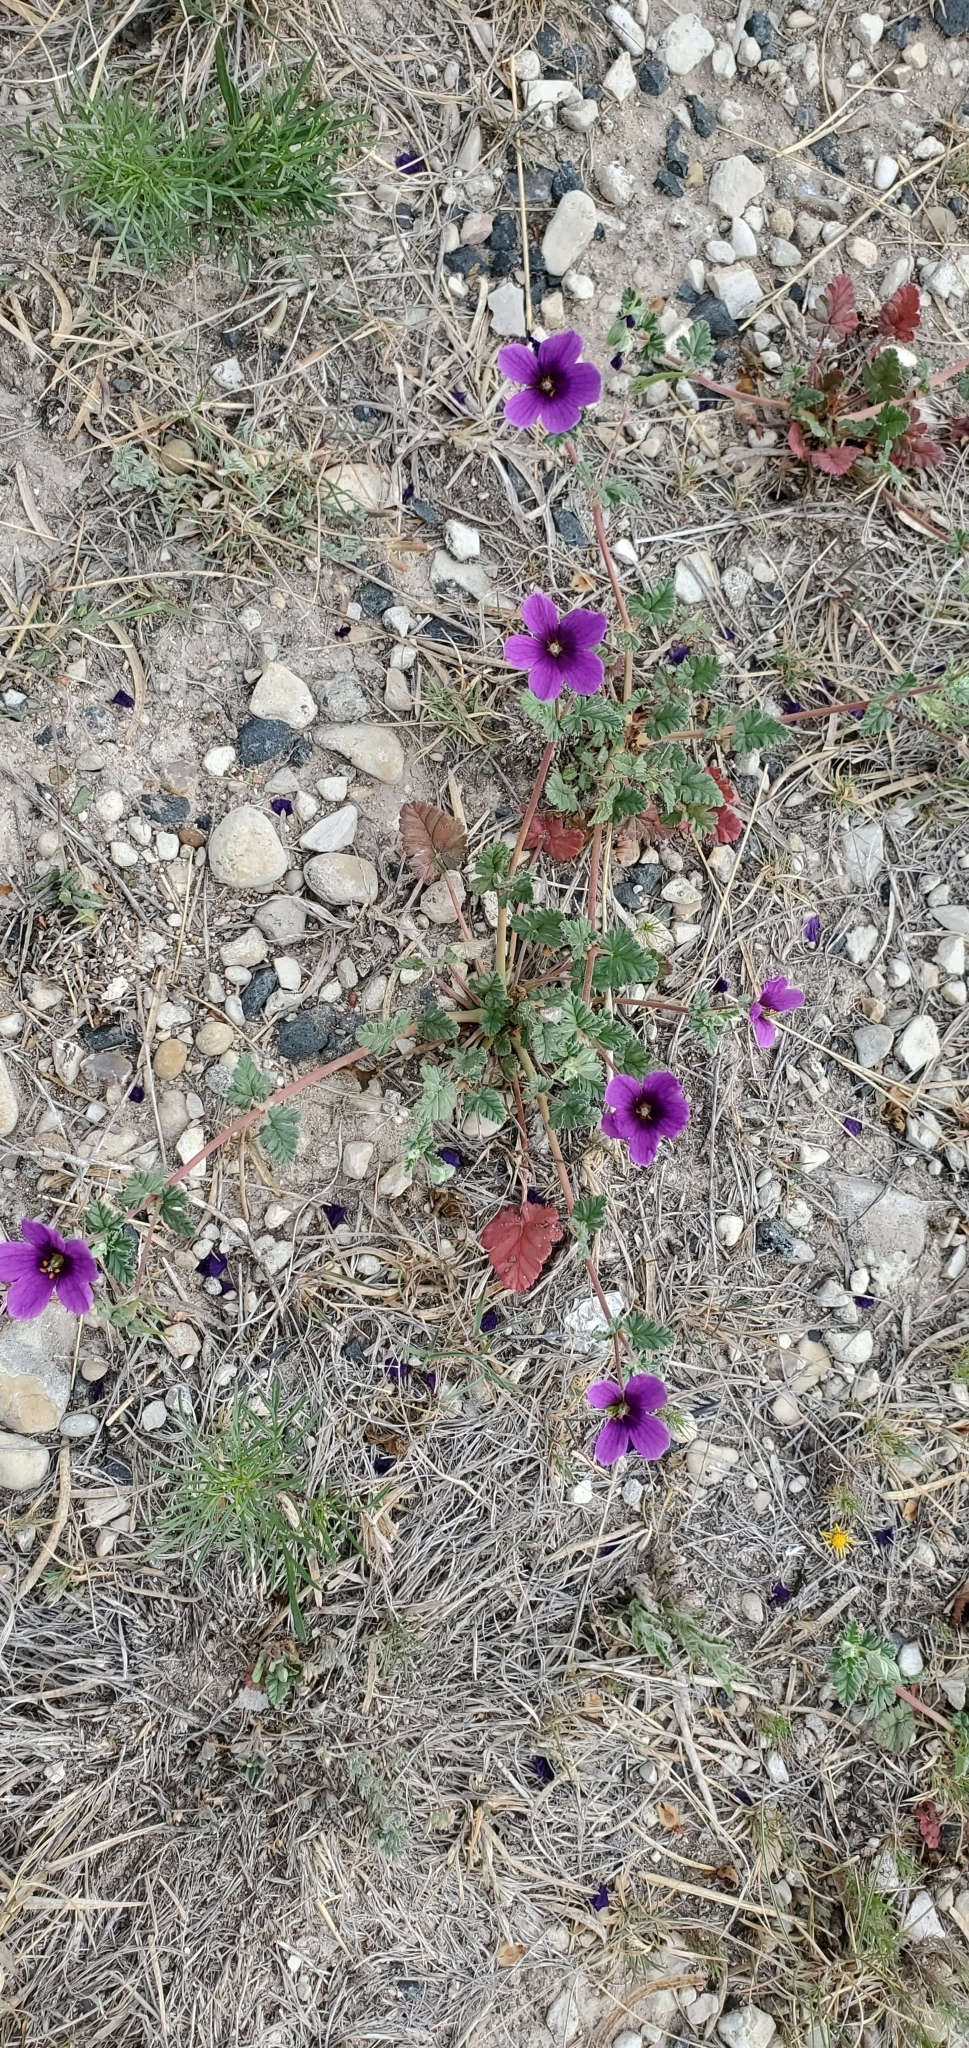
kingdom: Plantae
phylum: Tracheophyta
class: Magnoliopsida
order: Geraniales
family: Geraniaceae
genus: Erodium
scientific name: Erodium texanum
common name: Texas stork's-bill
